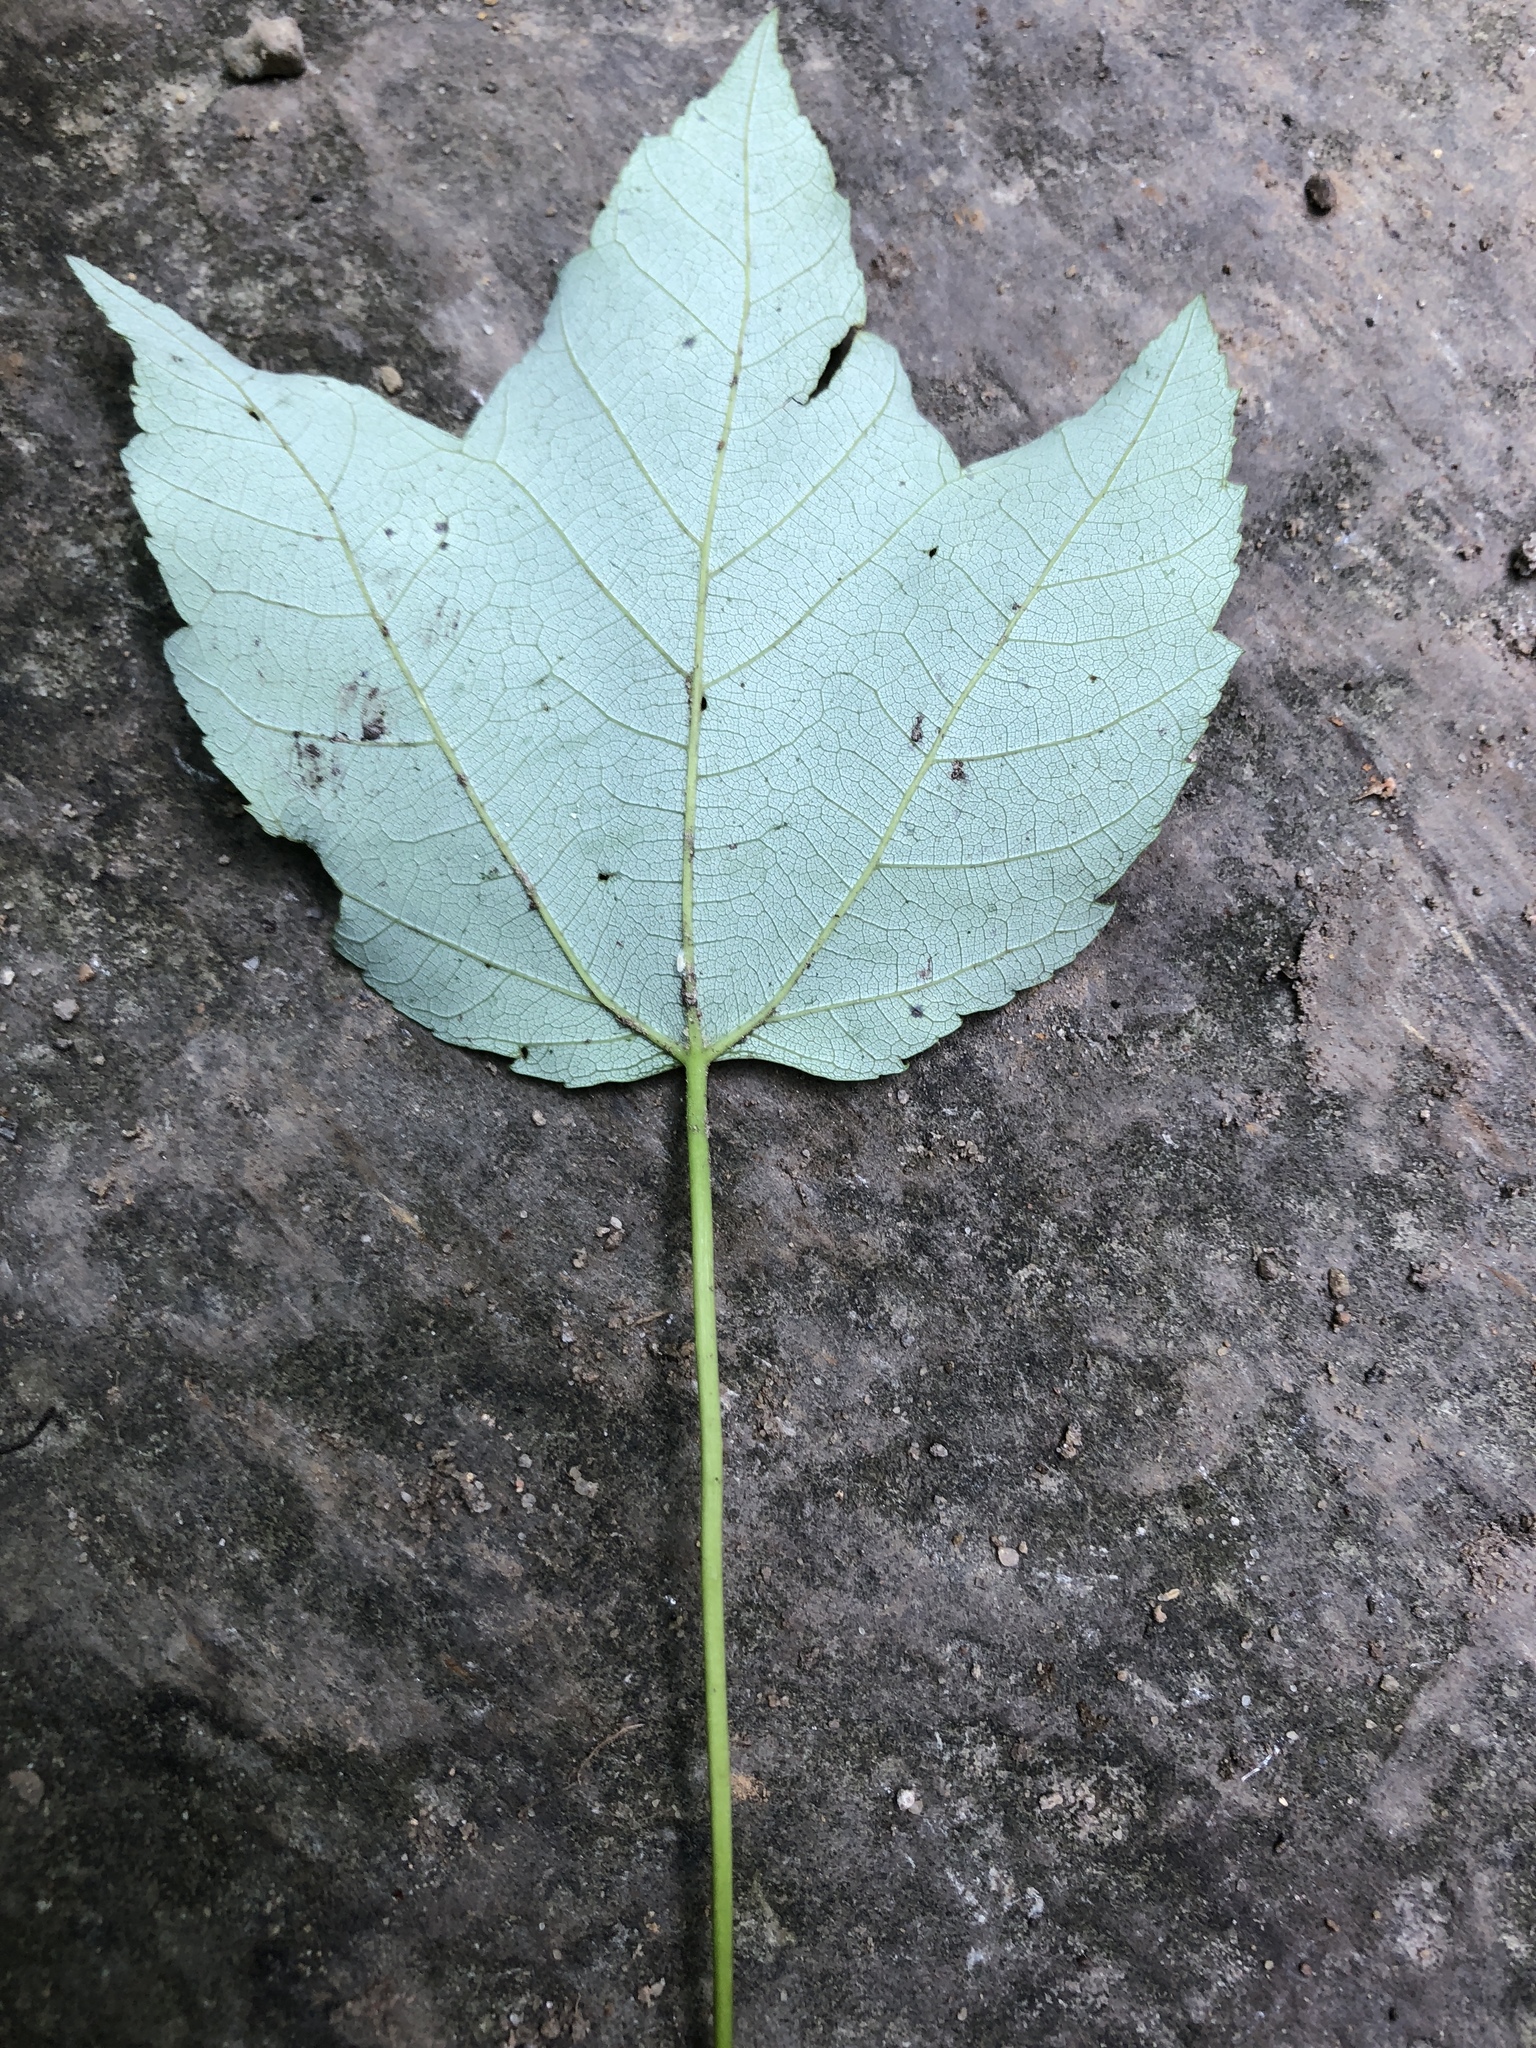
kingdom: Plantae
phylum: Tracheophyta
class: Magnoliopsida
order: Sapindales
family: Sapindaceae
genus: Acer
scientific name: Acer rubrum
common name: Red maple
